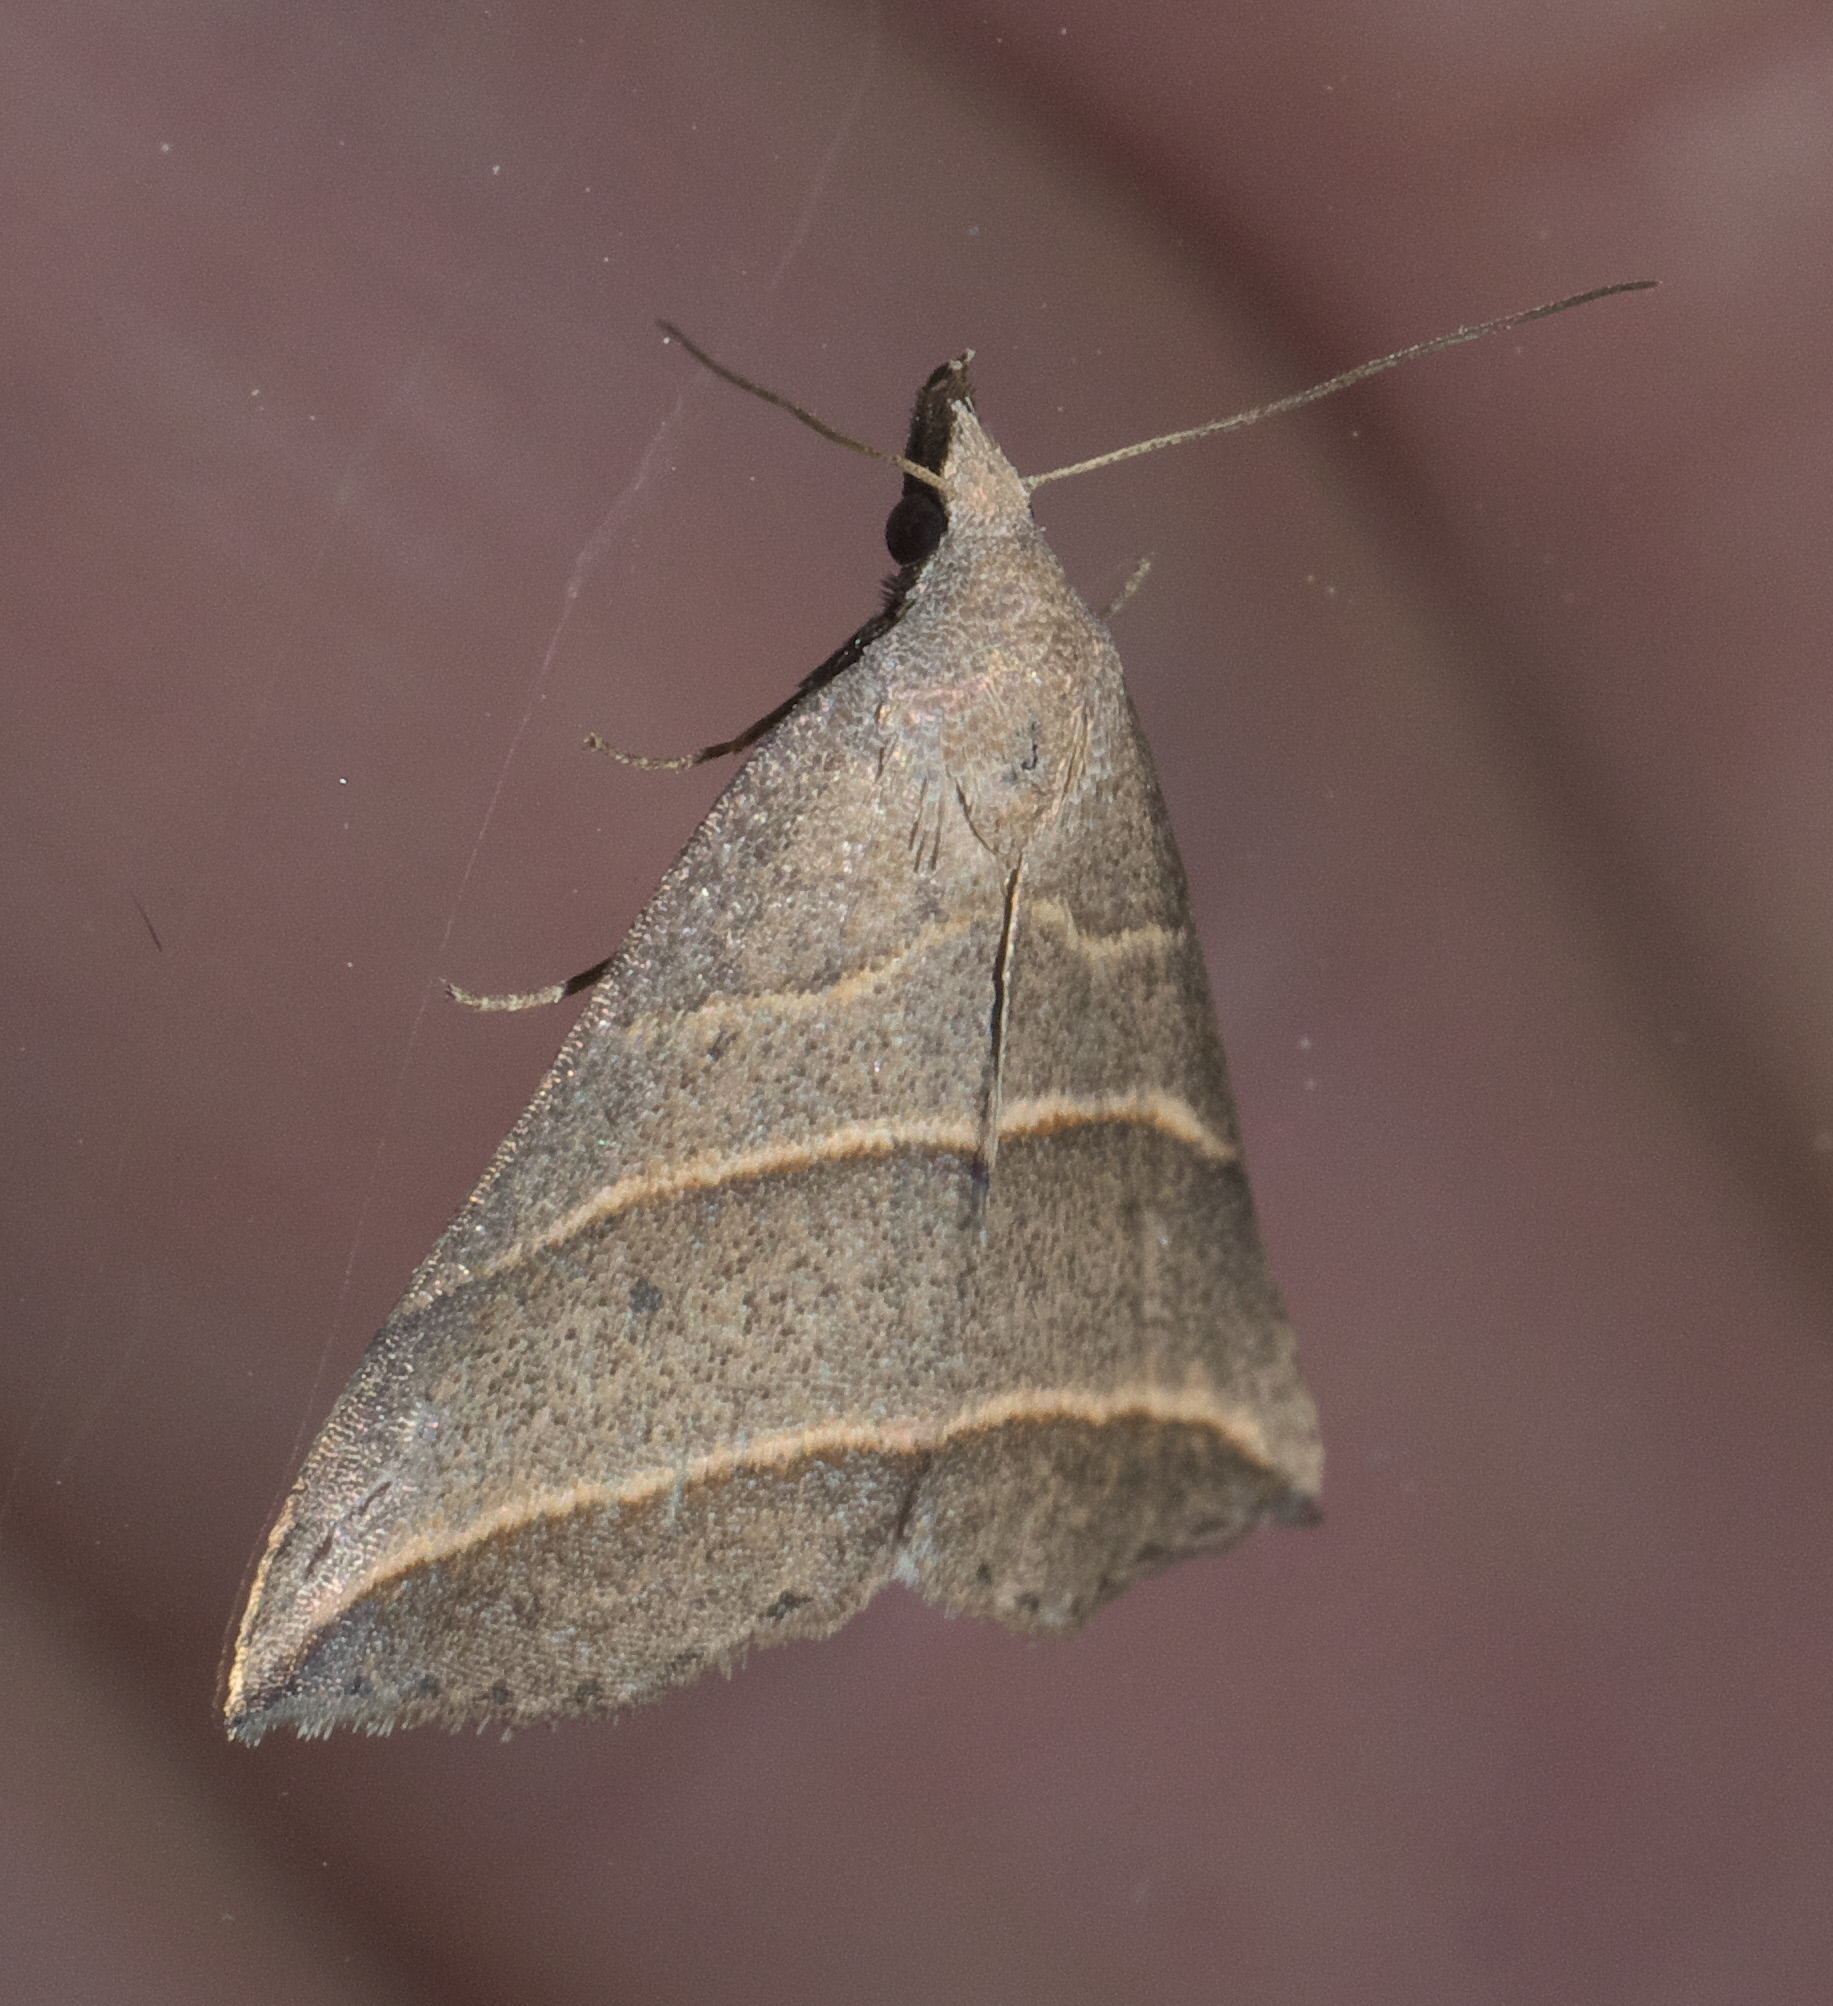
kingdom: Animalia
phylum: Arthropoda
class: Insecta
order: Lepidoptera
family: Erebidae
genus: Colobochyla
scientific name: Colobochyla interpuncta
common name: Yellow-lined owlet
